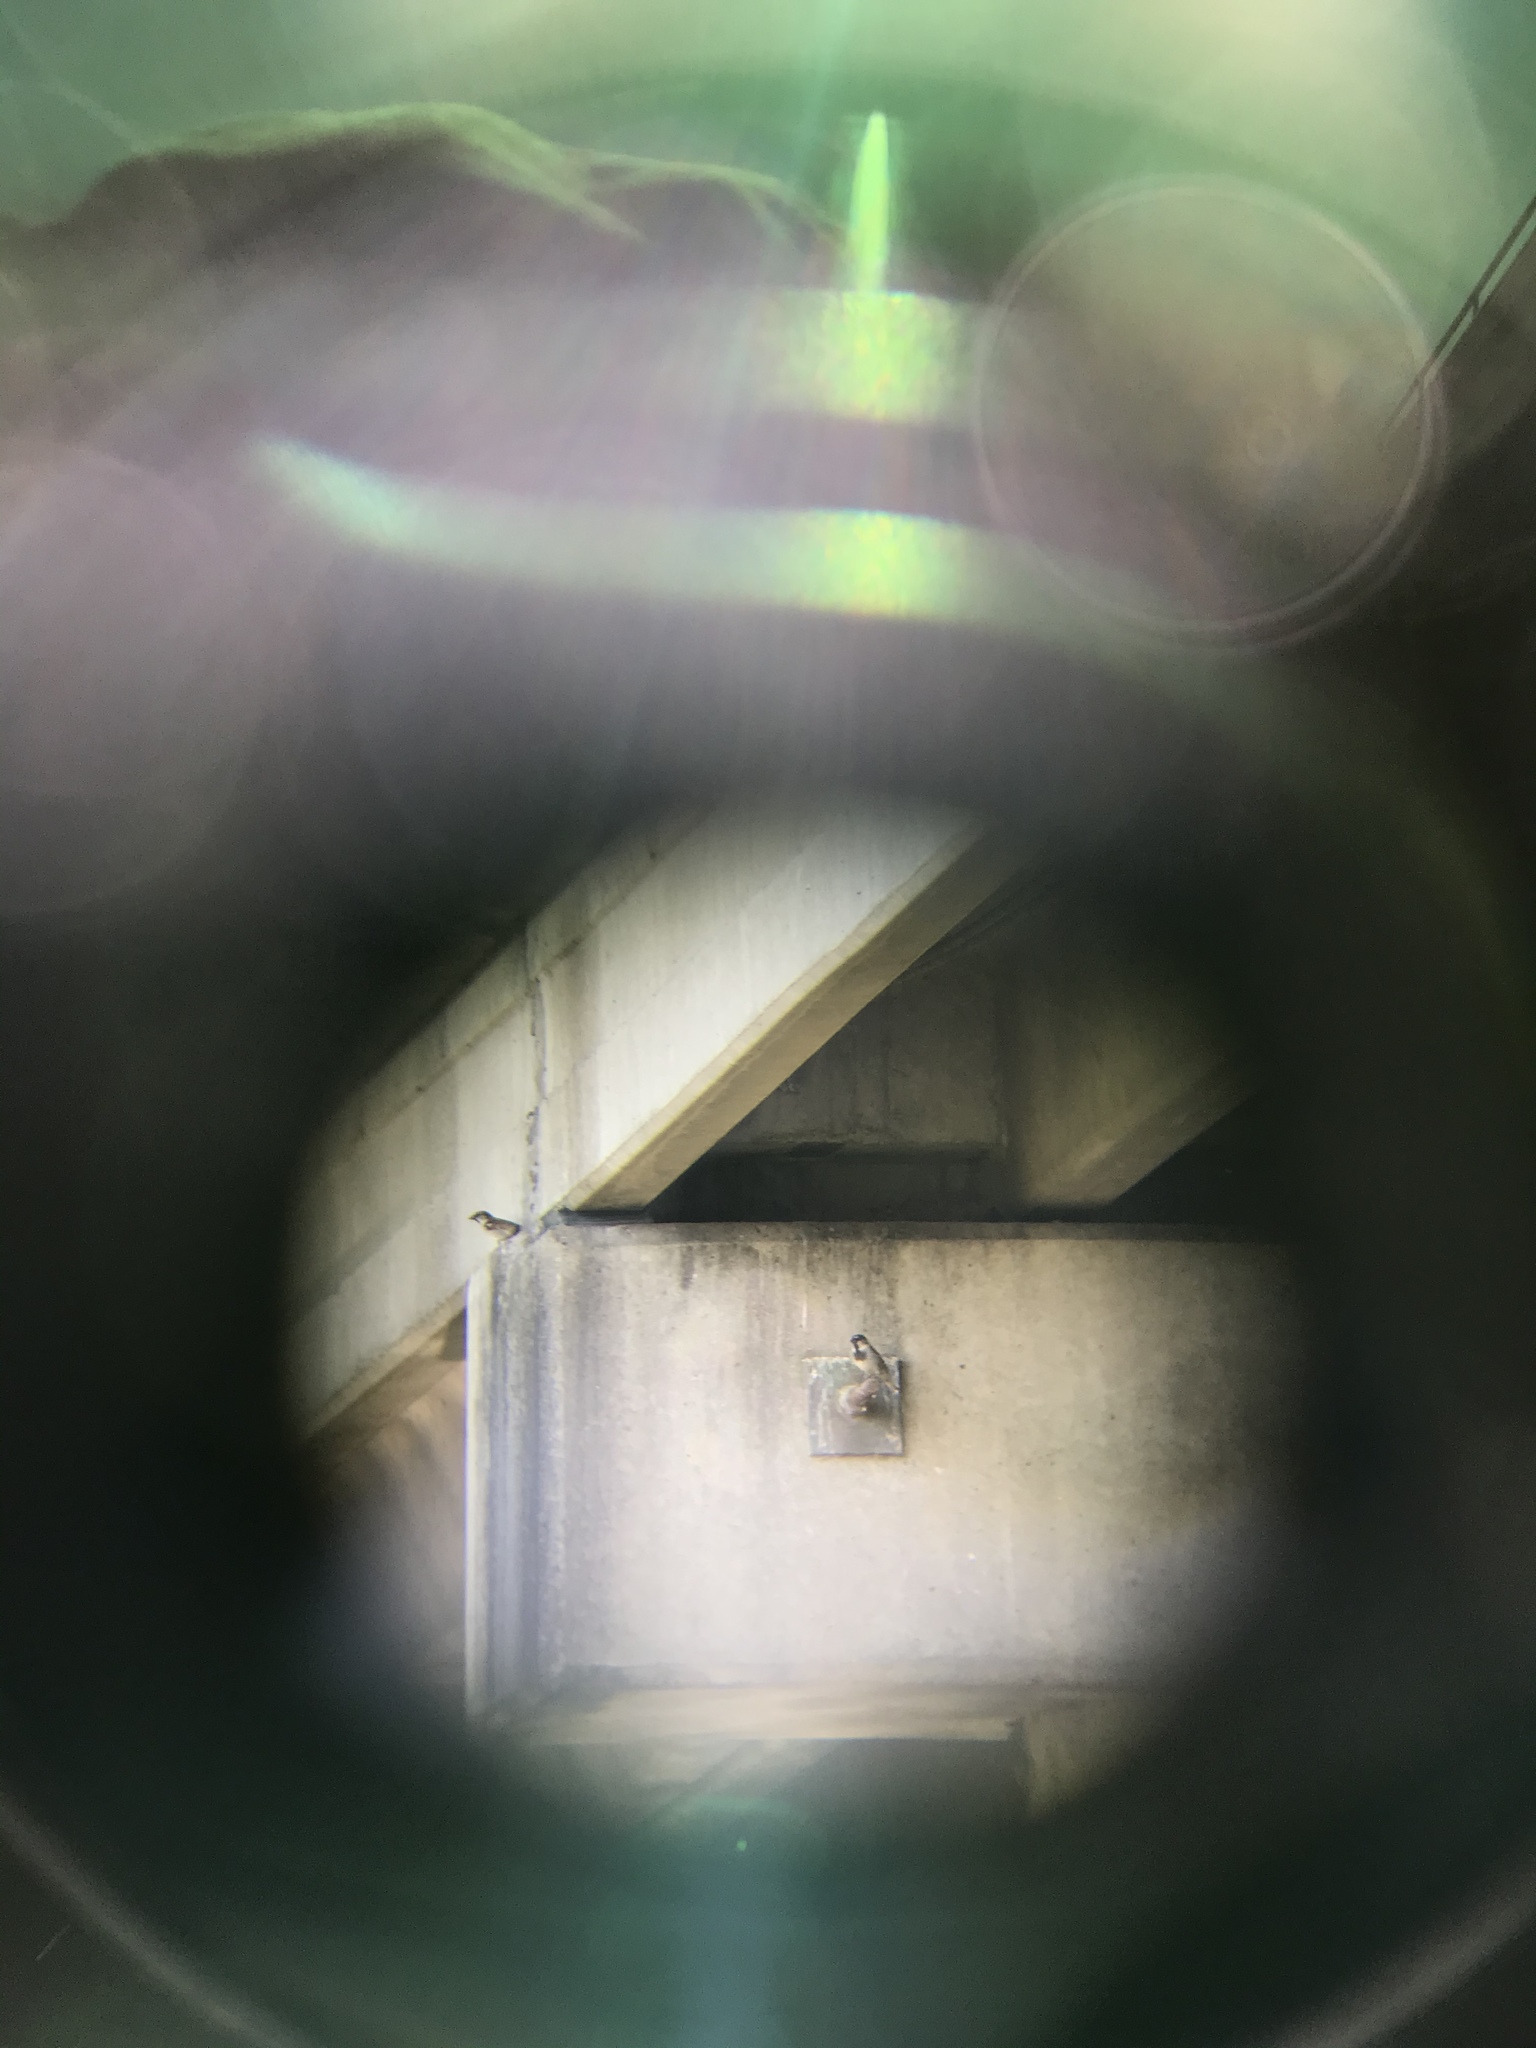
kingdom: Animalia
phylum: Chordata
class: Aves
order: Passeriformes
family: Passeridae
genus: Passer
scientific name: Passer domesticus
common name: House sparrow
